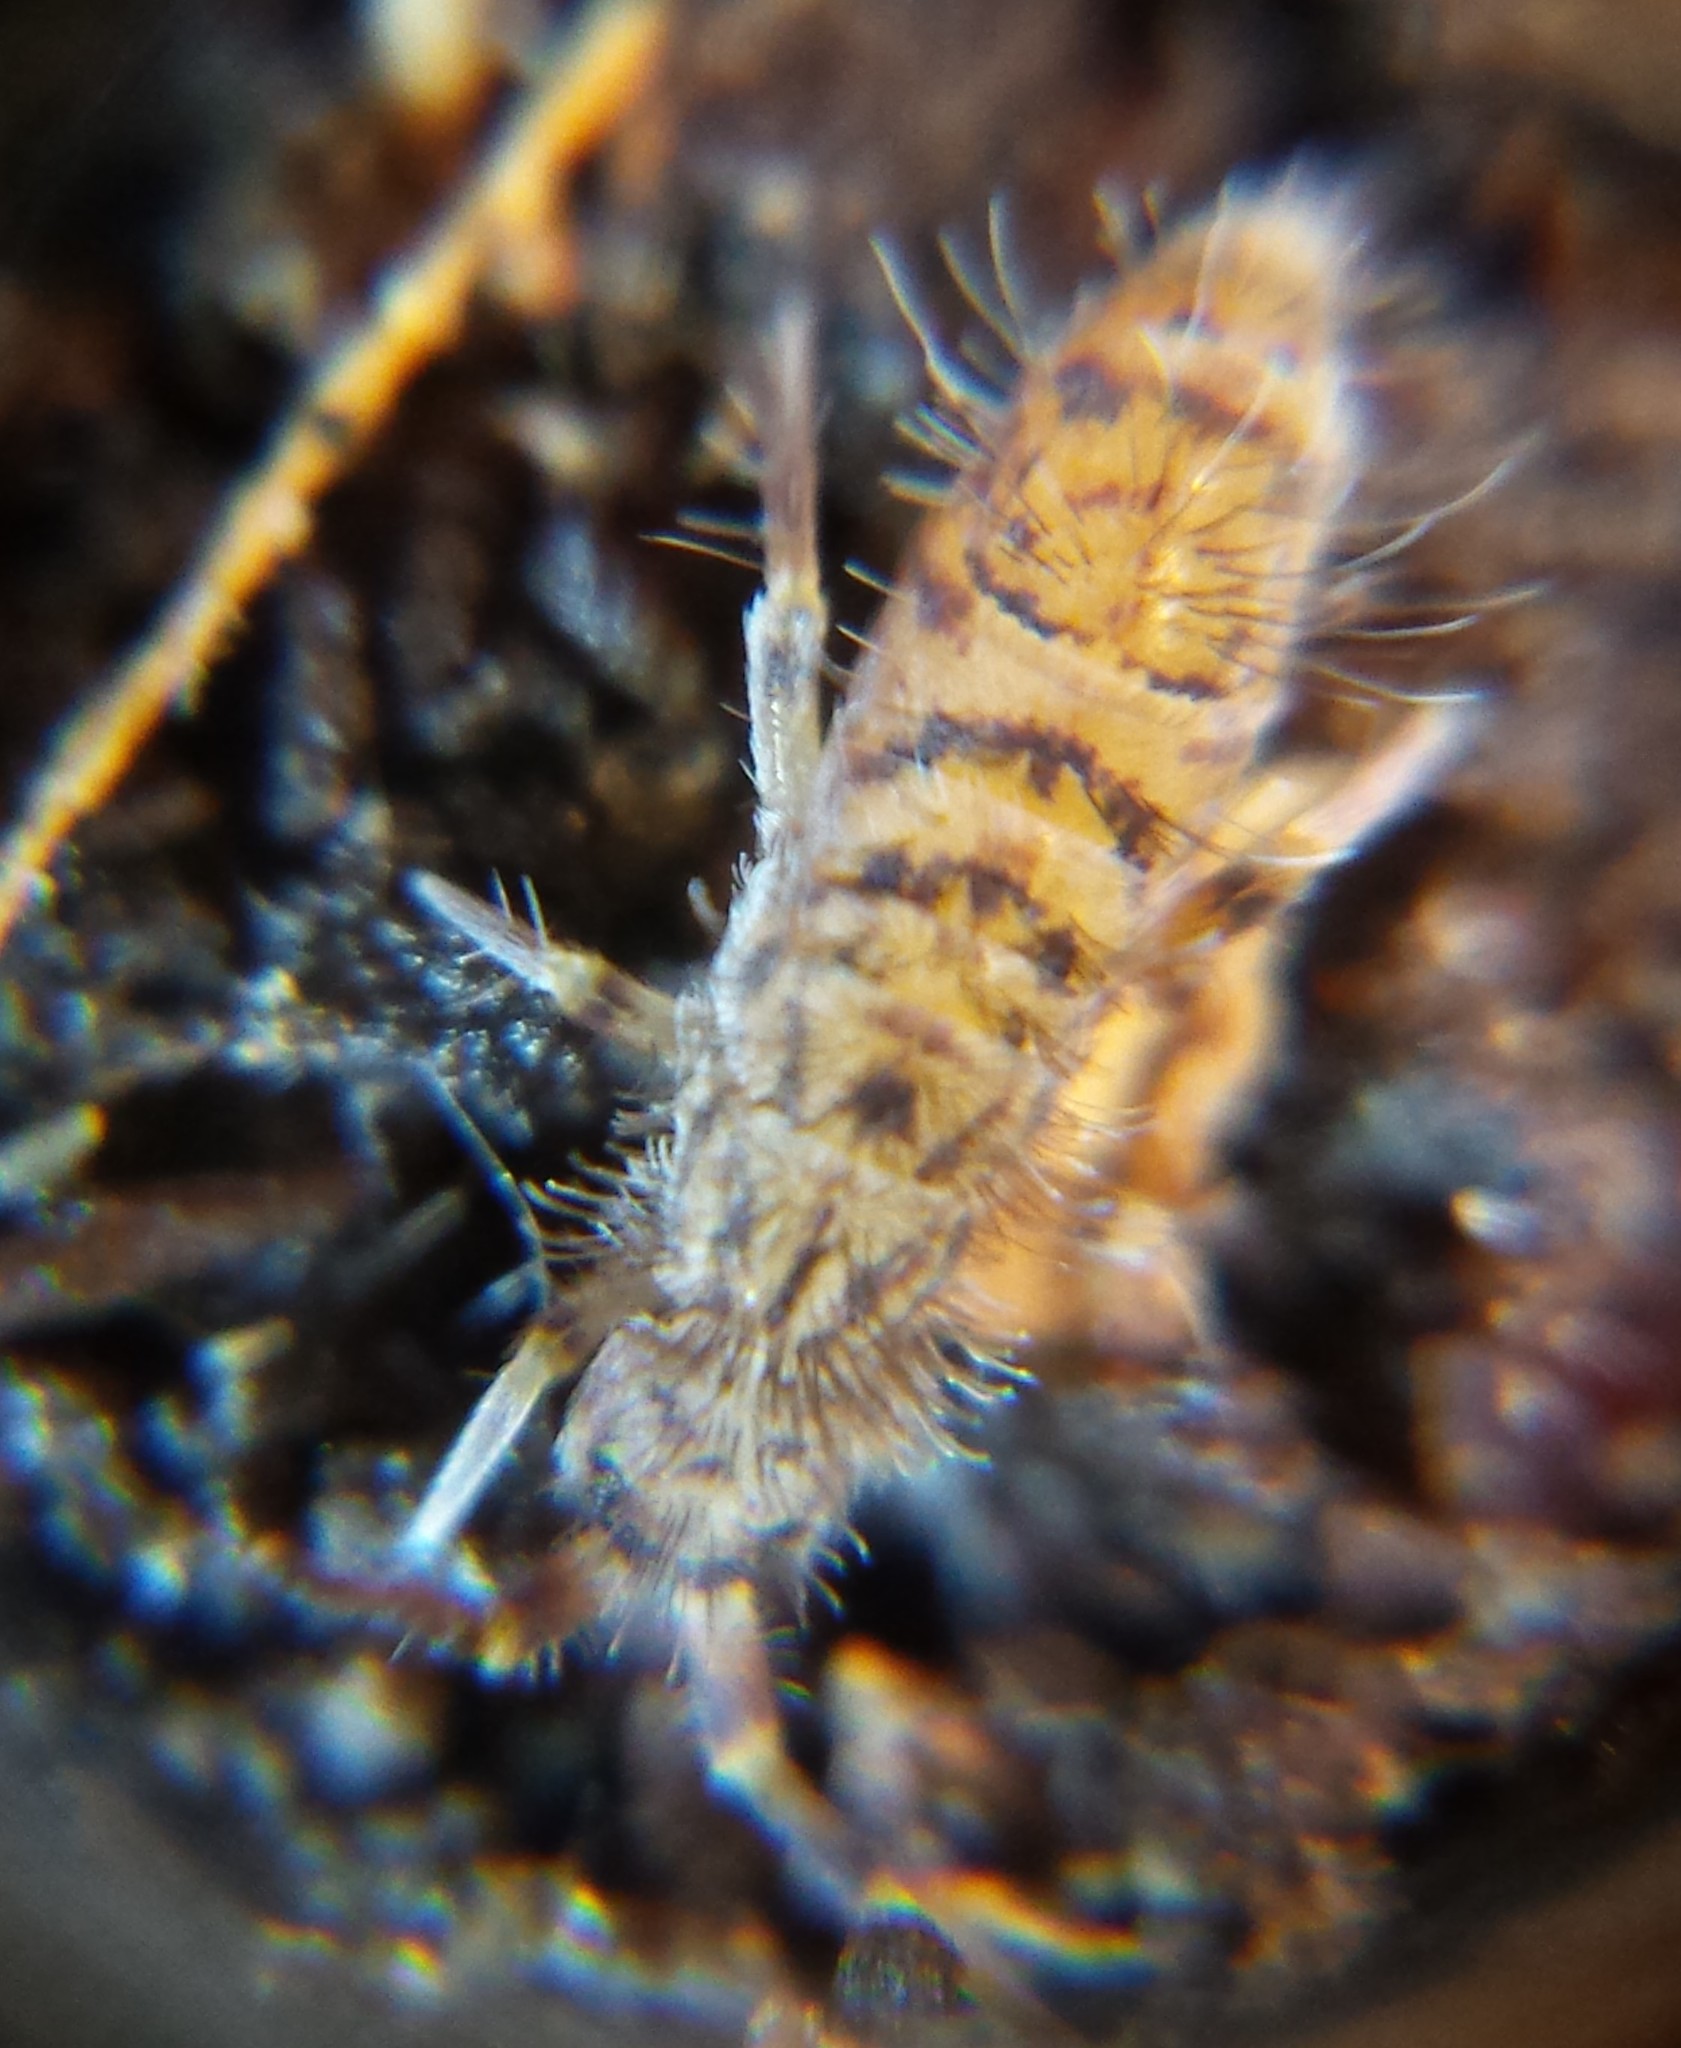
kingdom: Animalia
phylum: Arthropoda
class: Collembola
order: Entomobryomorpha
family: Orchesellidae
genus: Orchesella
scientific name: Orchesella villosa
